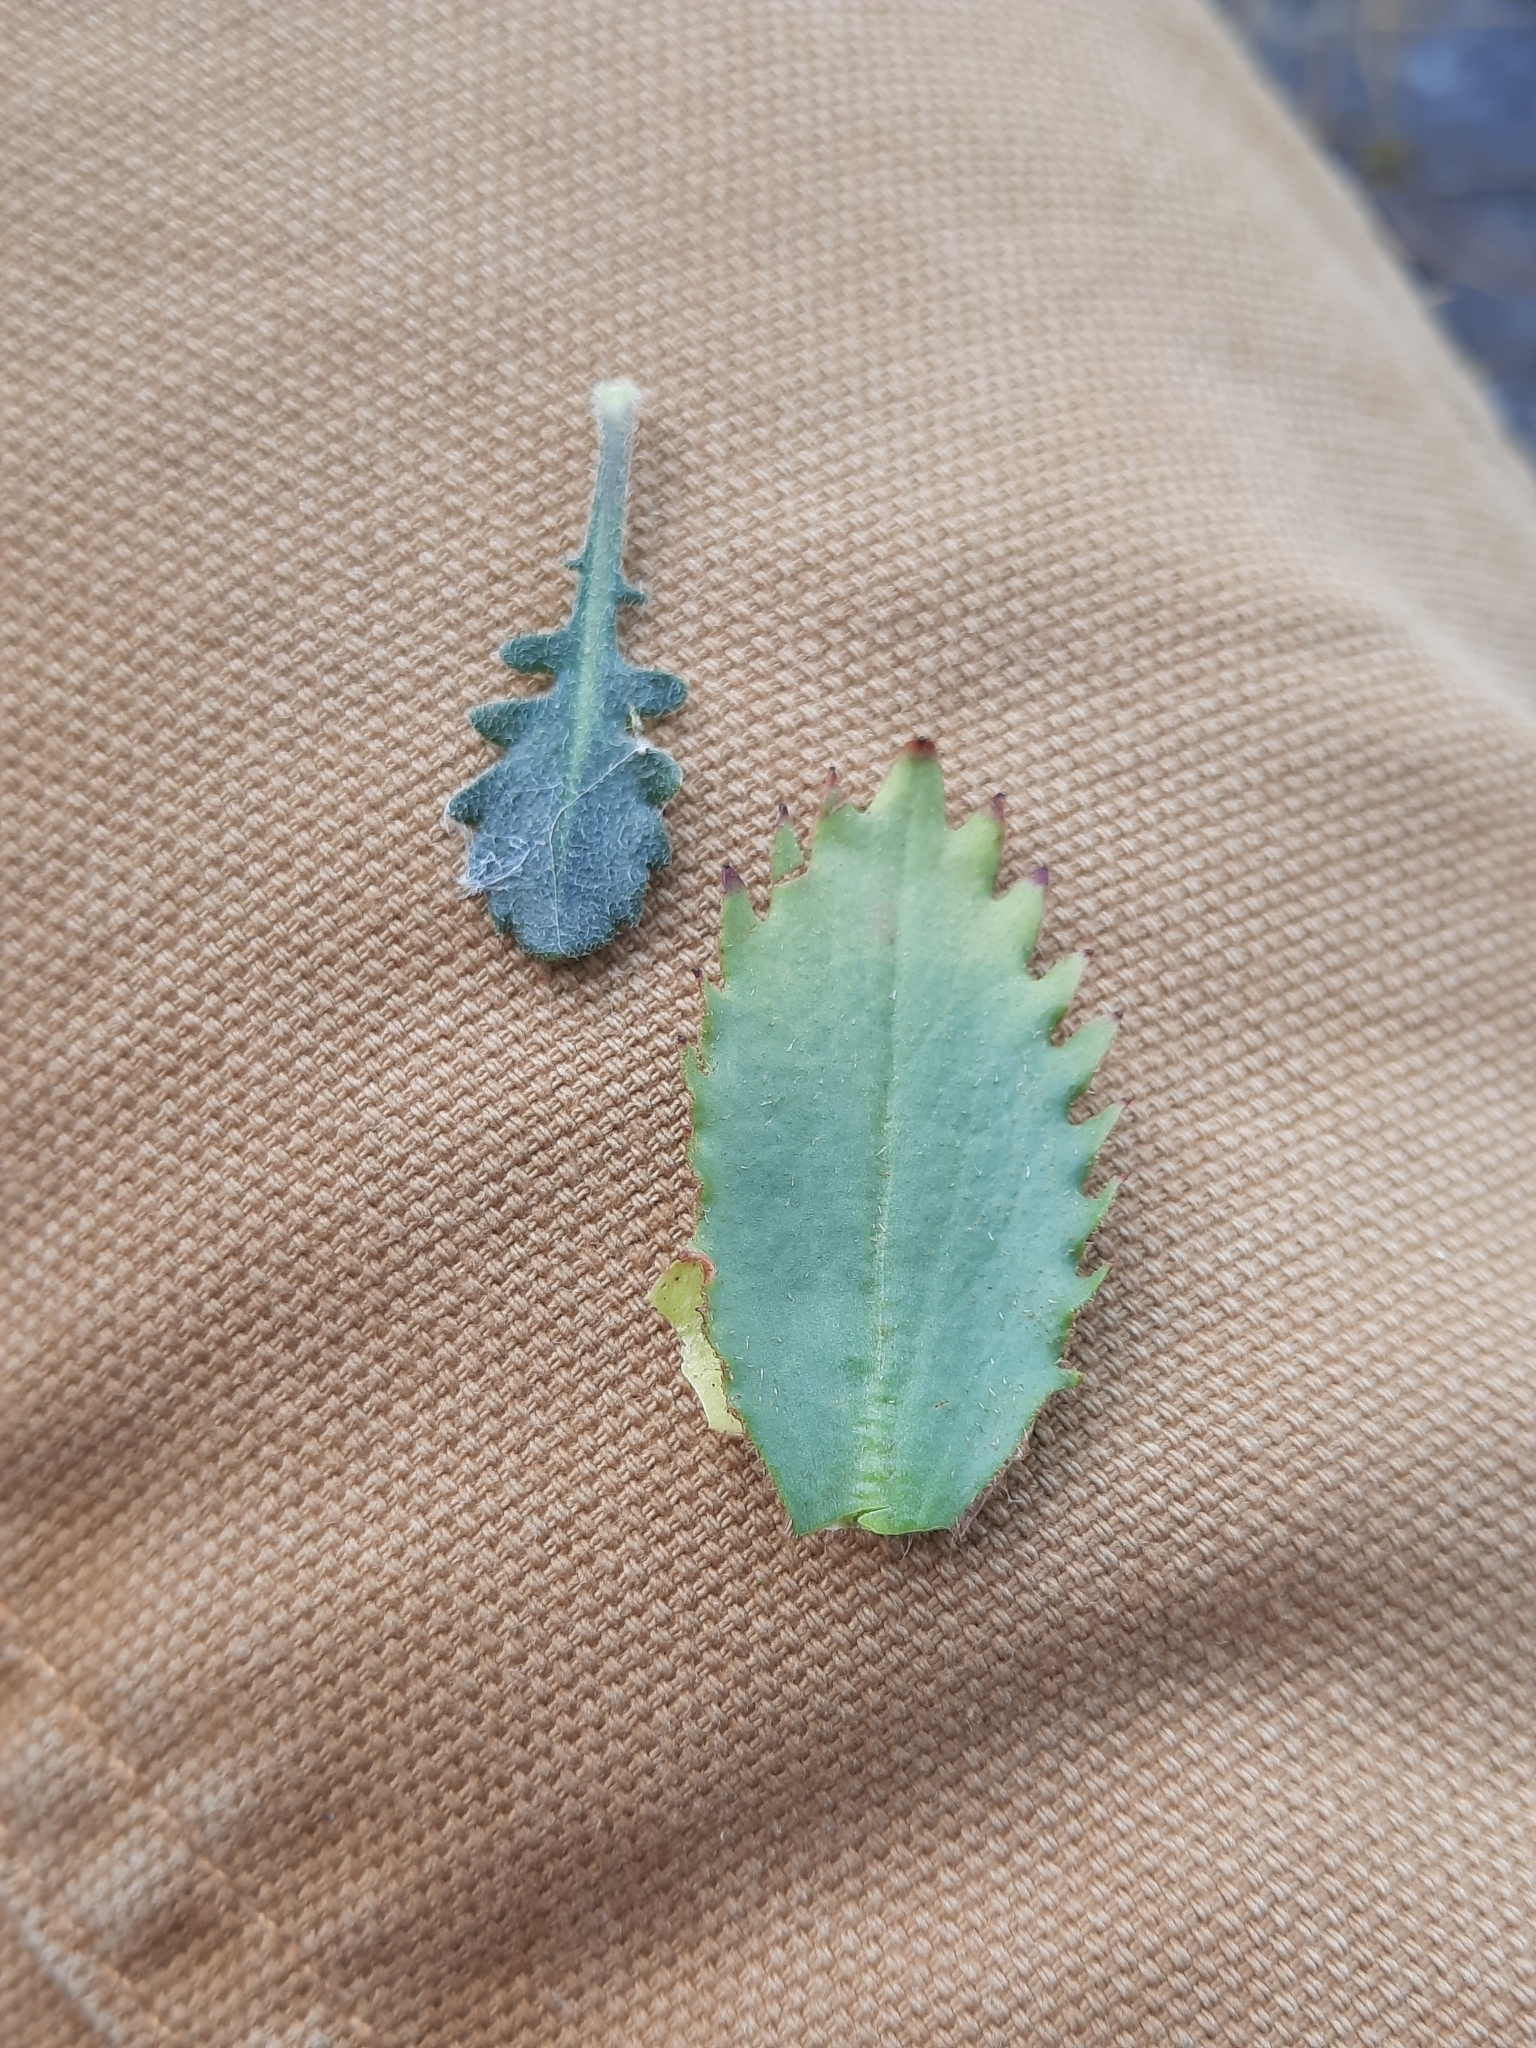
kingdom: Plantae
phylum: Tracheophyta
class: Magnoliopsida
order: Saxifragales
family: Saxifragaceae
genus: Micranthes
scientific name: Micranthes virginiensis
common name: Early saxifrage
